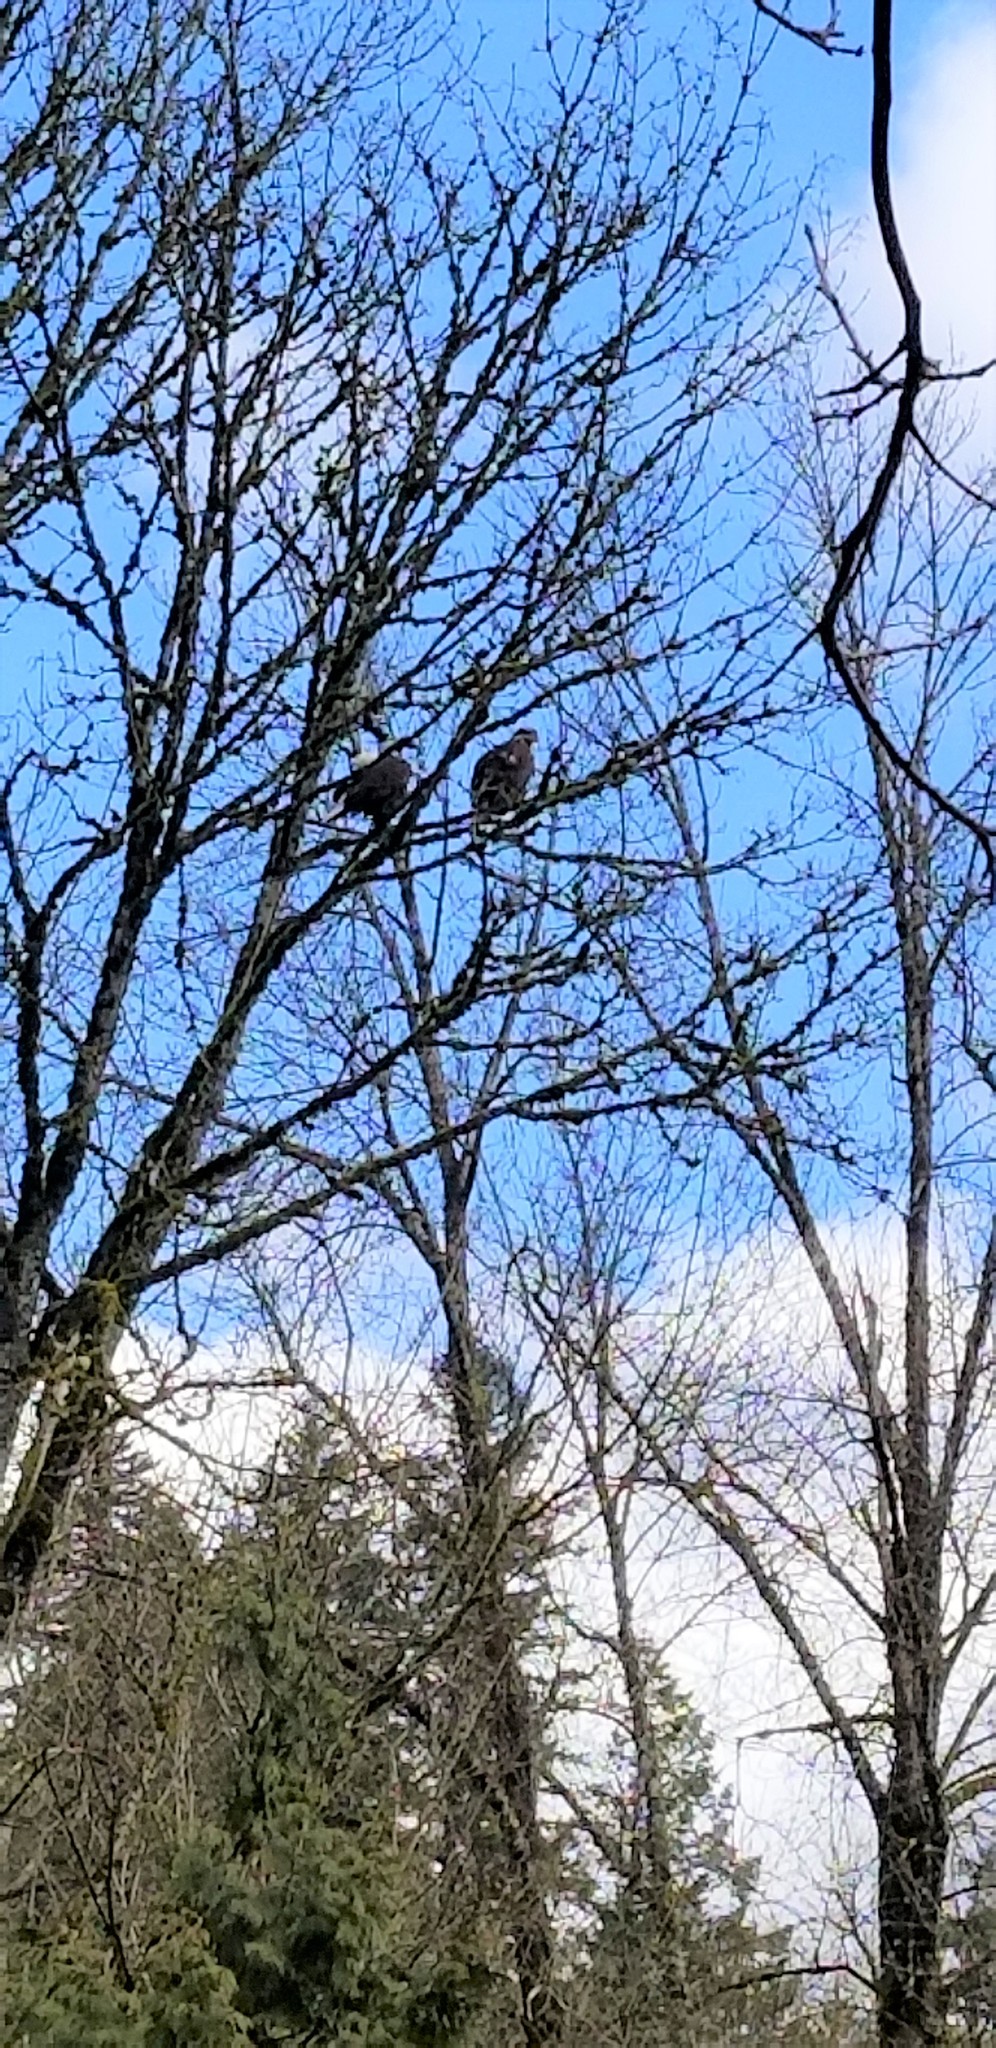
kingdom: Animalia
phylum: Chordata
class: Aves
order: Accipitriformes
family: Accipitridae
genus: Haliaeetus
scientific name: Haliaeetus leucocephalus
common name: Bald eagle
